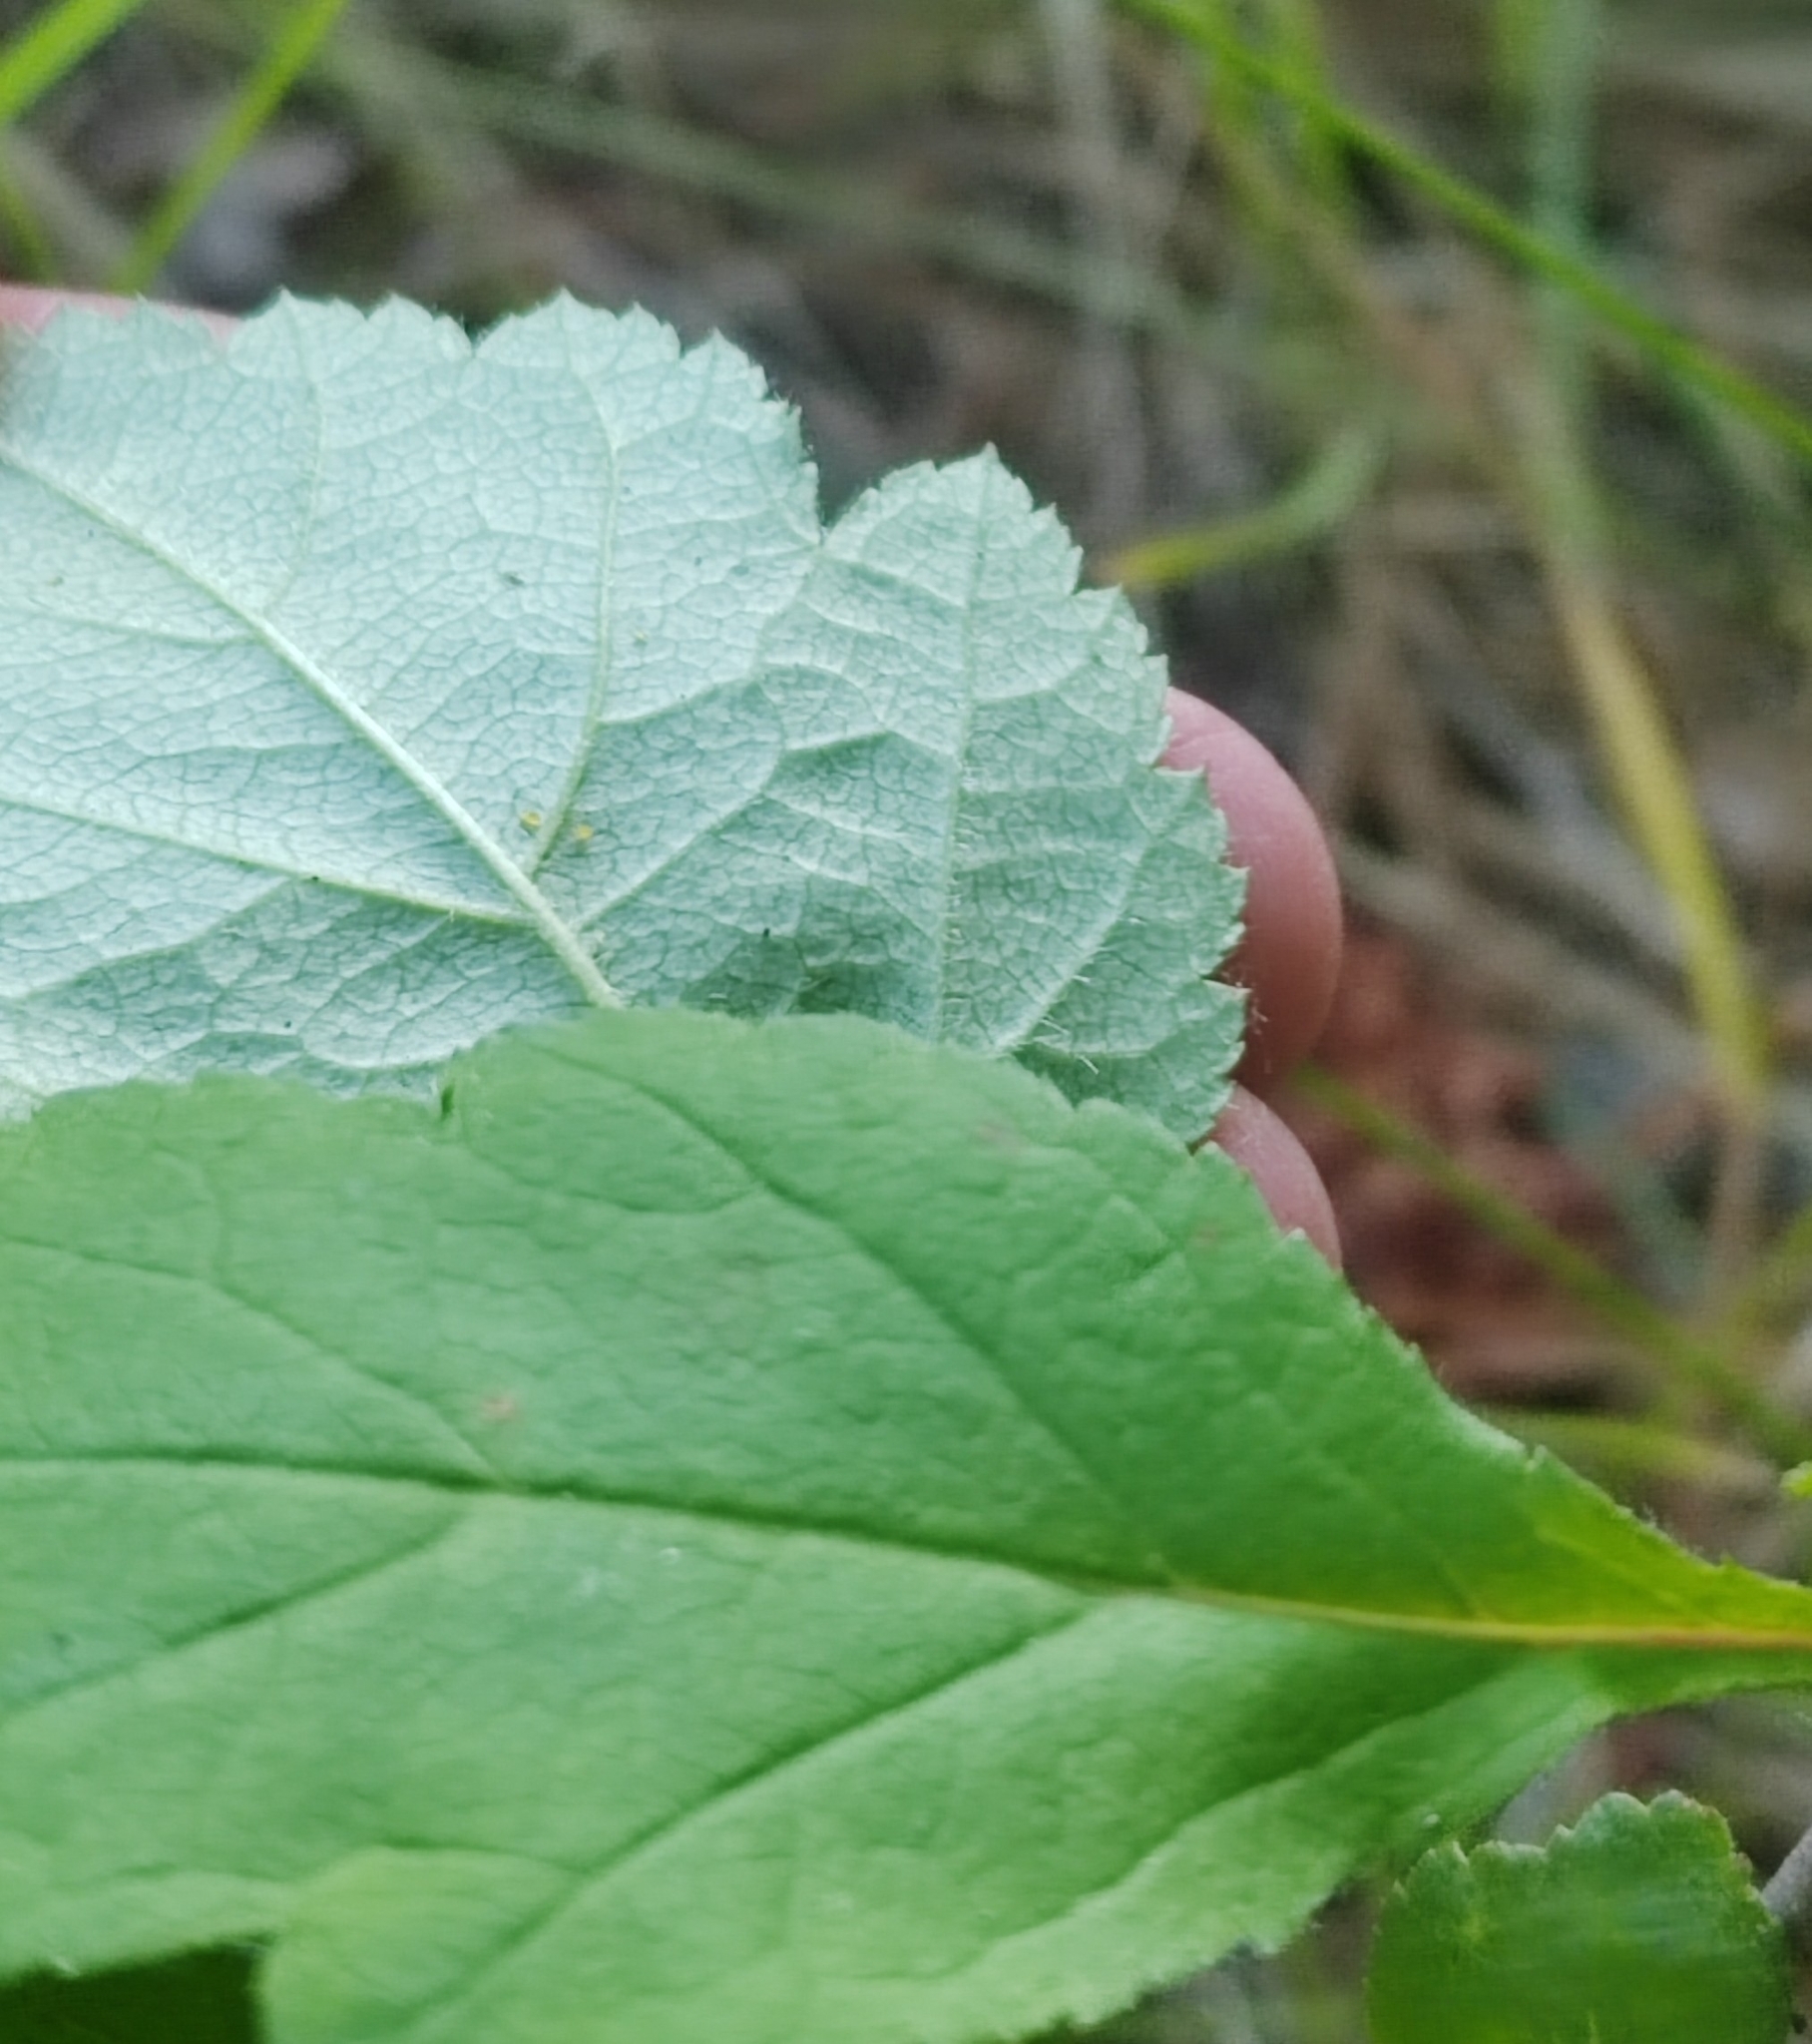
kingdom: Plantae
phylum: Tracheophyta
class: Magnoliopsida
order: Rosales
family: Rosaceae
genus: Crataegus
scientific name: Crataegus sanguinea
